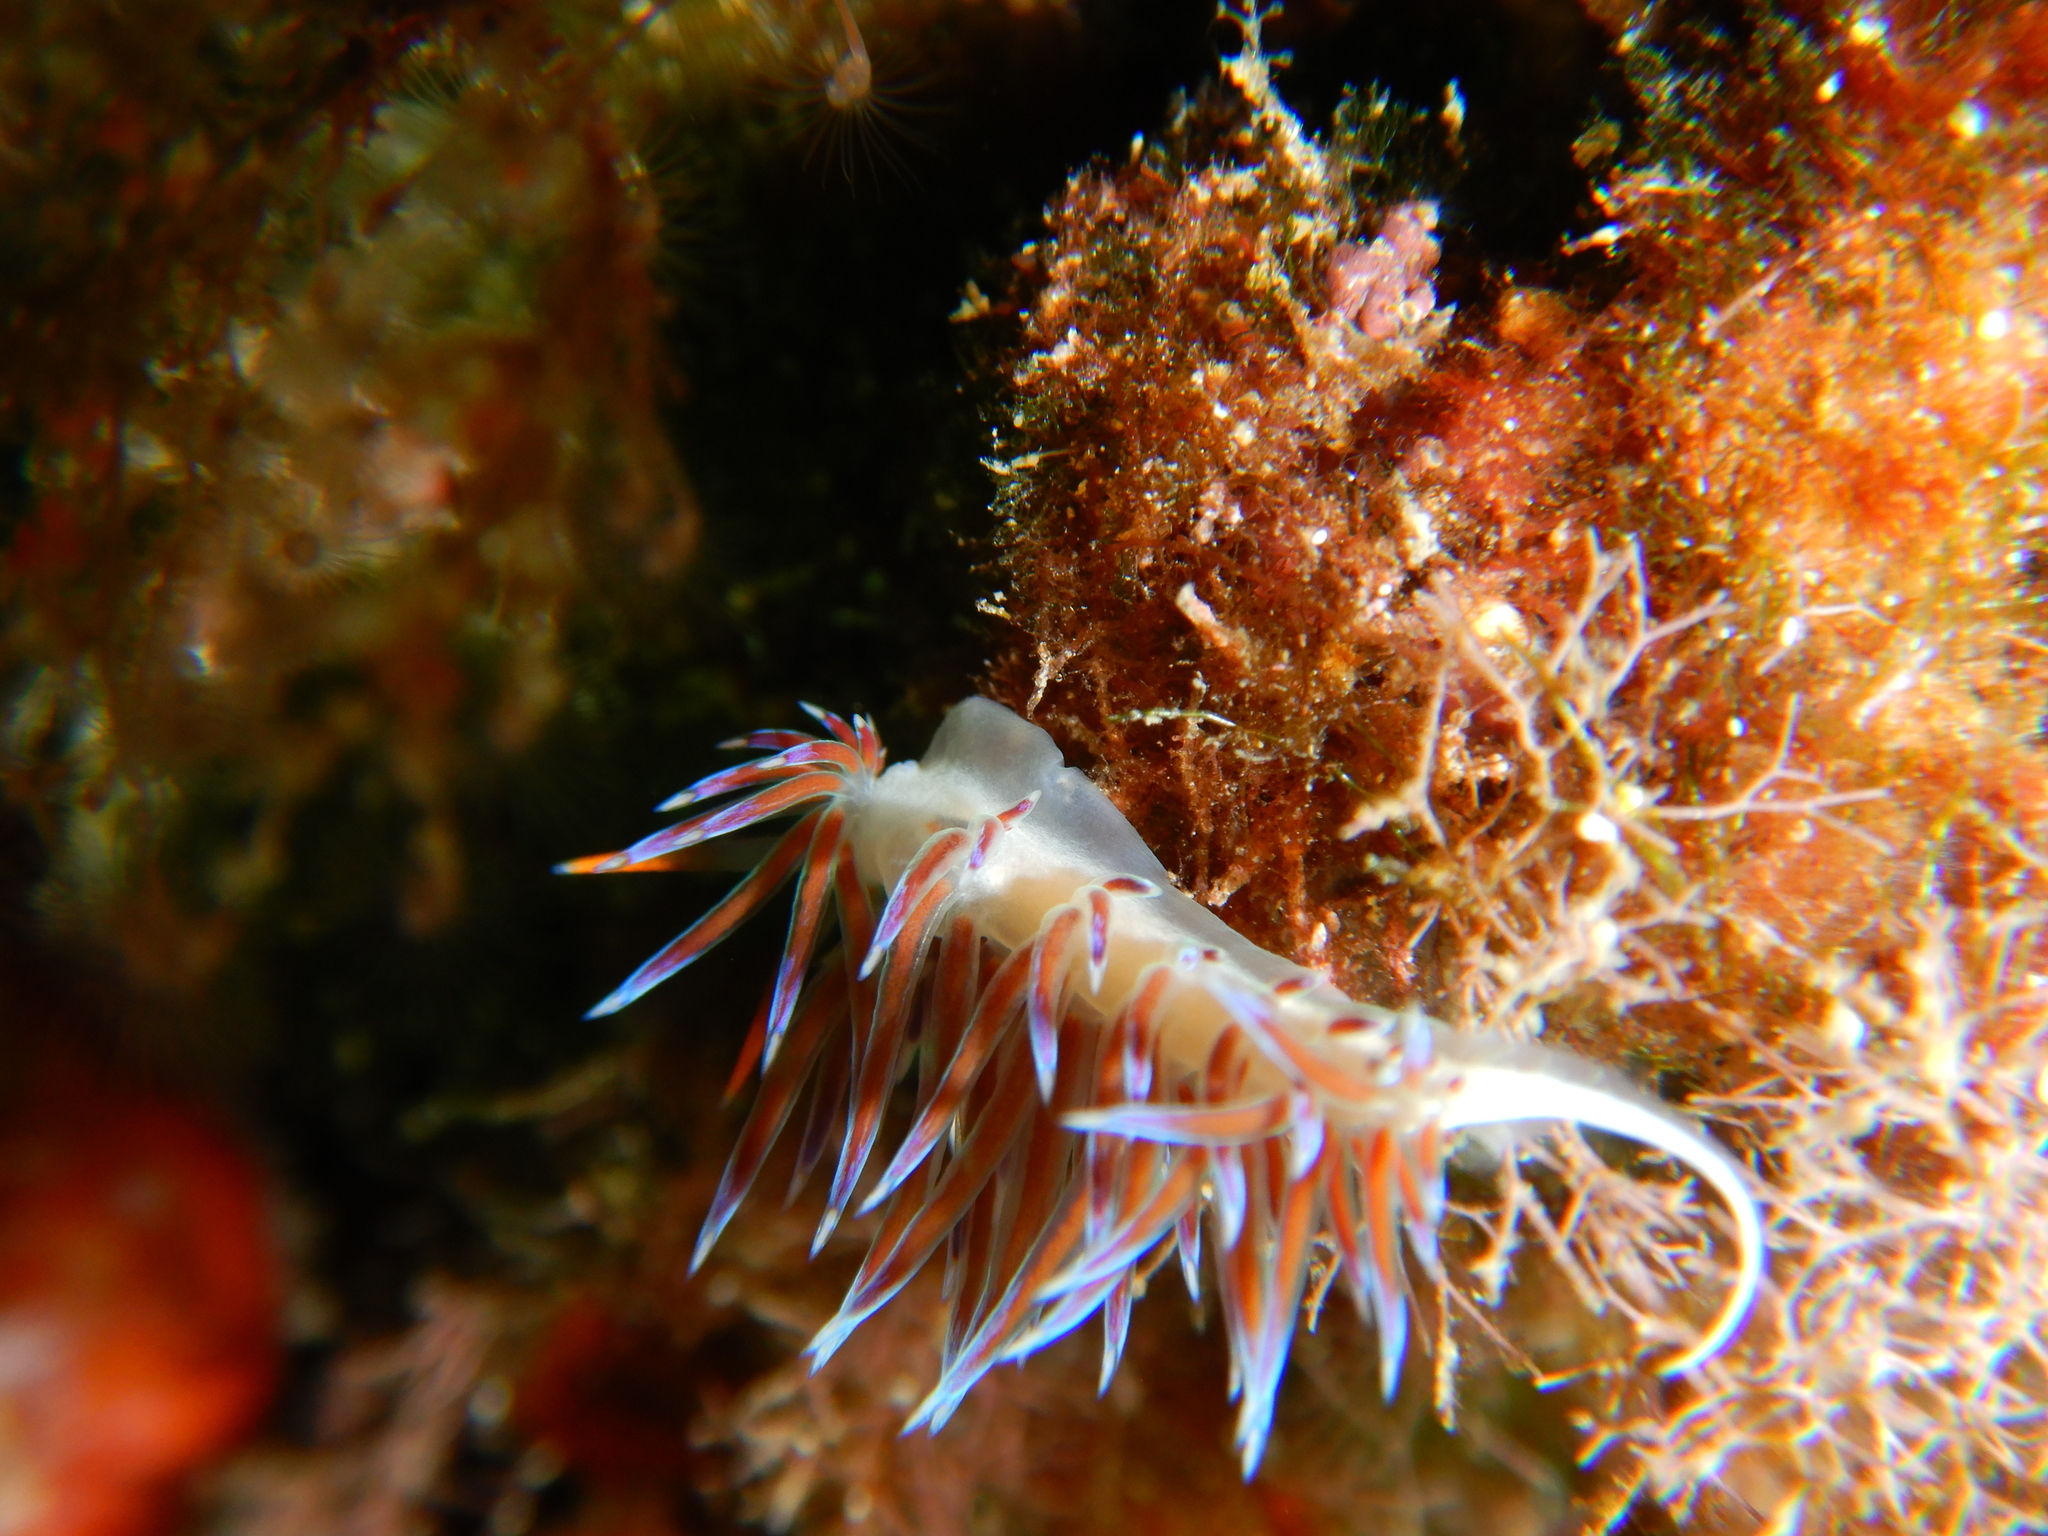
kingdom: Animalia
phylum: Mollusca
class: Gastropoda
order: Nudibranchia
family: Facelinidae
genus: Cratena
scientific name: Cratena peregrina
